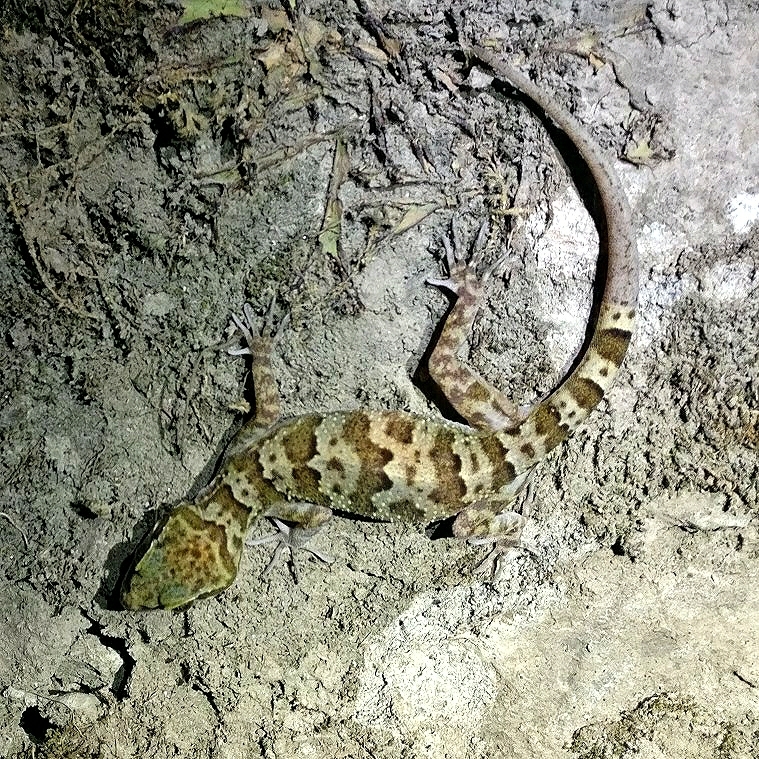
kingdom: Animalia
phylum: Chordata
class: Squamata
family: Gekkonidae
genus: Cyrtodactylus
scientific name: Cyrtodactylus fasciolatus
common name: Banded bent-toed gecko
